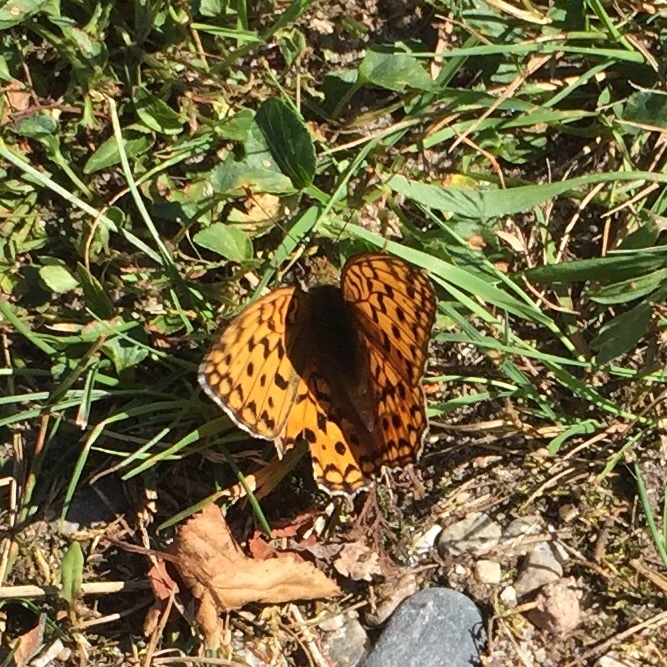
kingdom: Animalia
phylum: Arthropoda
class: Insecta
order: Lepidoptera
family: Nymphalidae
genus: Fabriciana
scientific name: Fabriciana adippe
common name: High brown fritillary
